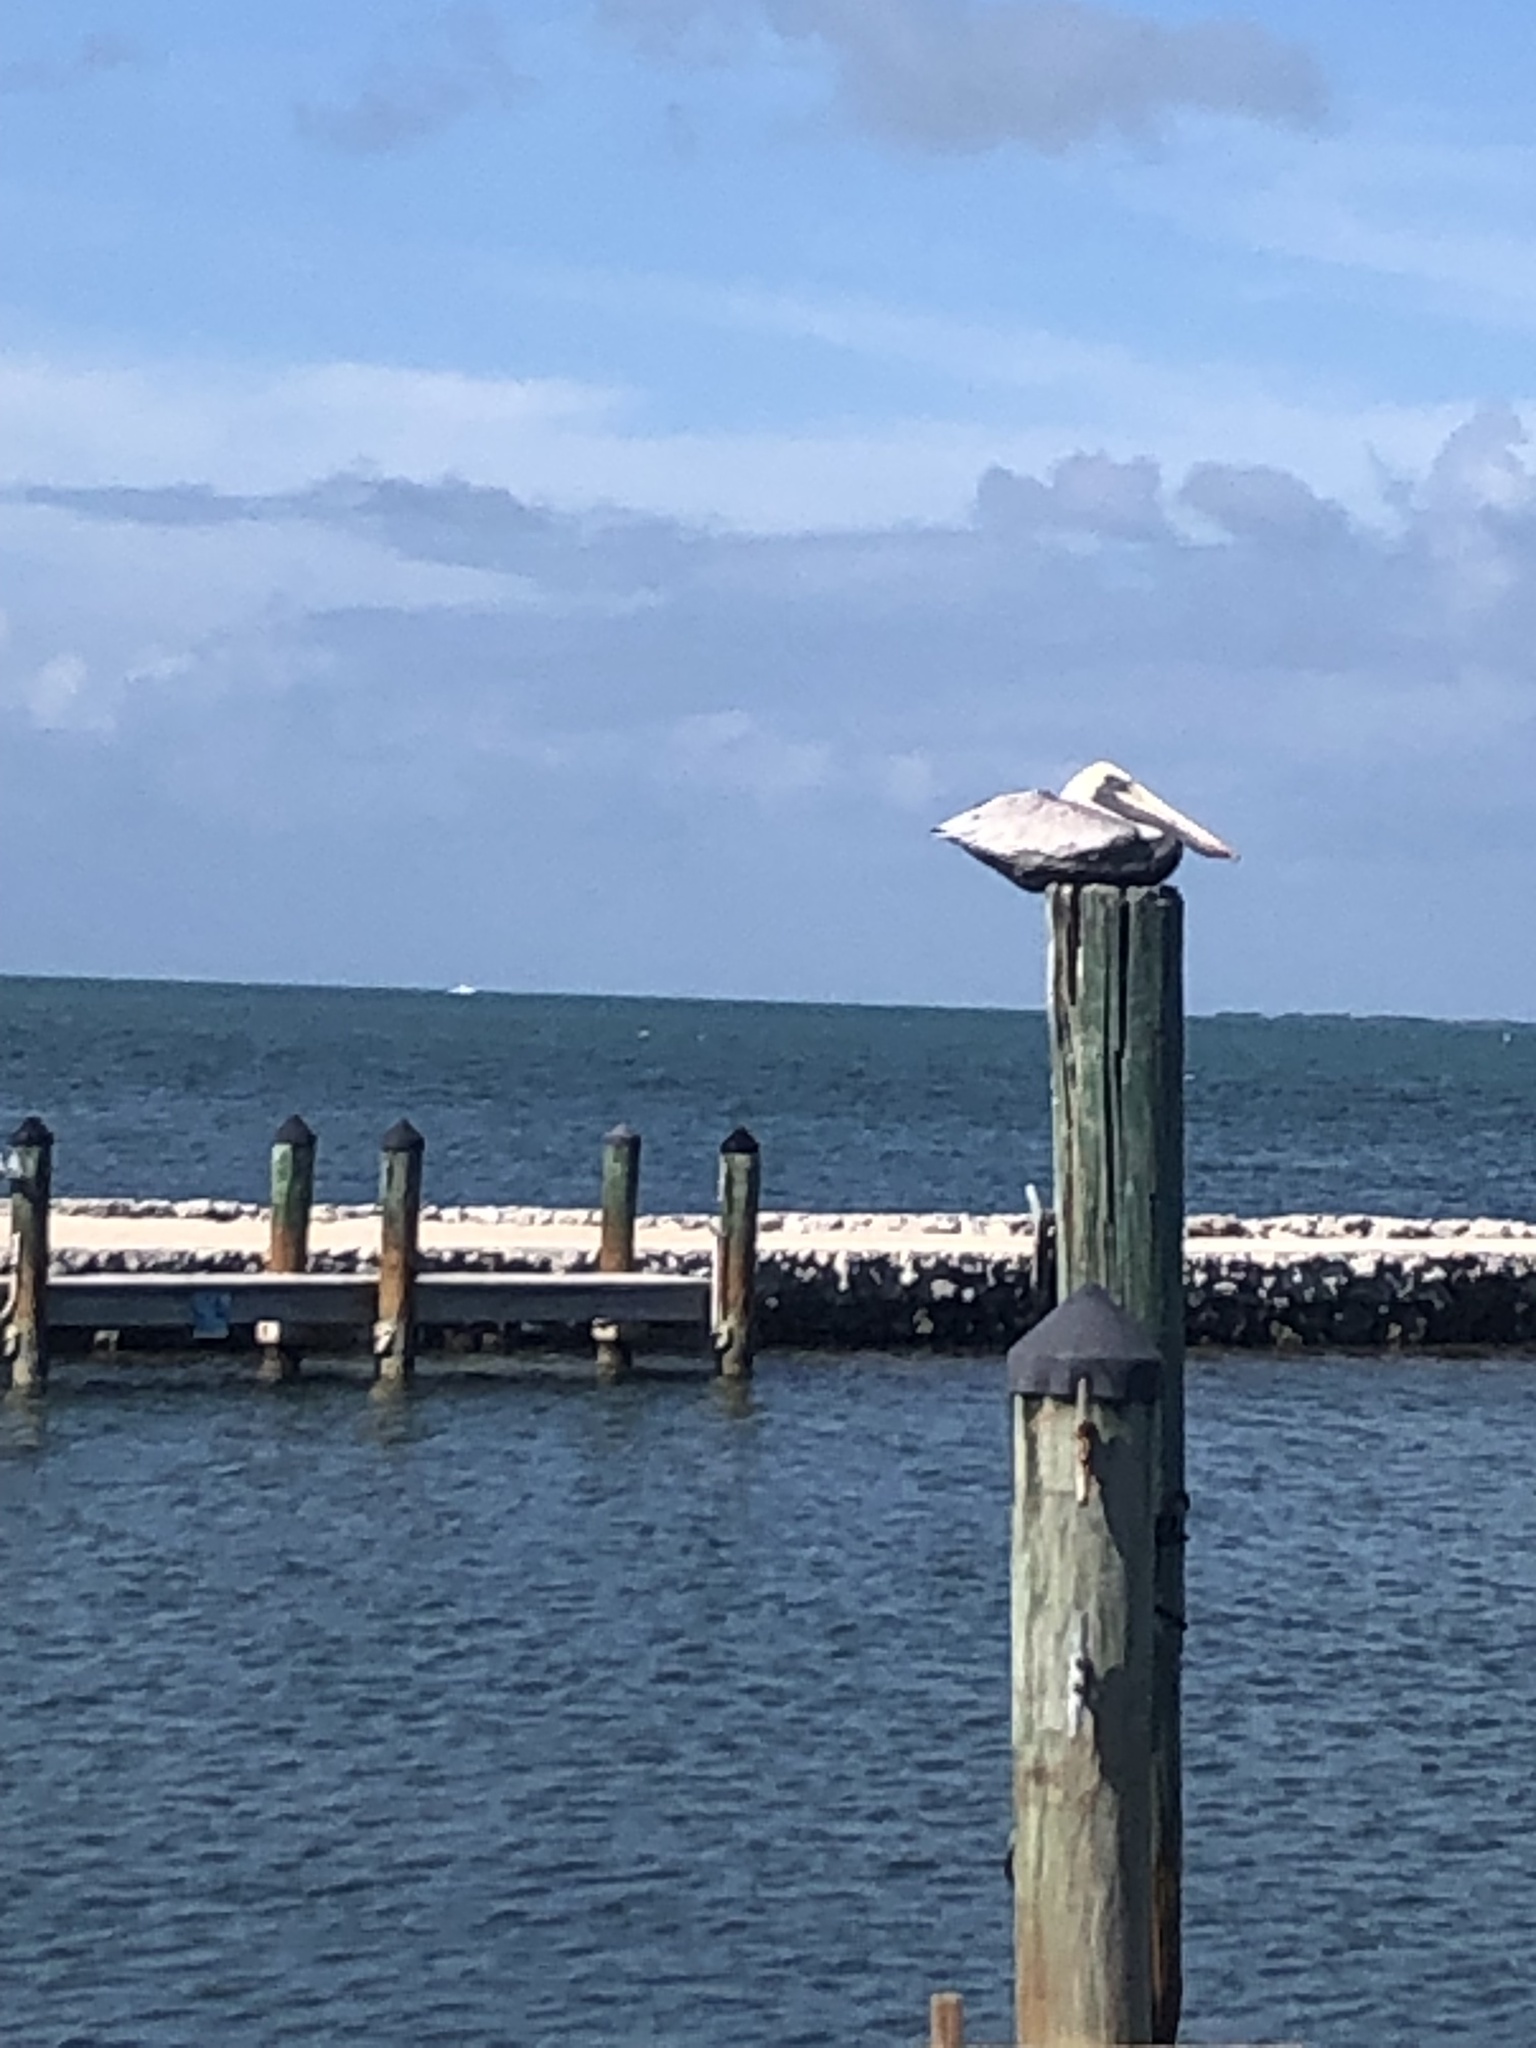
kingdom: Animalia
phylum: Chordata
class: Aves
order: Pelecaniformes
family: Pelecanidae
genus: Pelecanus
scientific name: Pelecanus occidentalis
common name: Brown pelican
